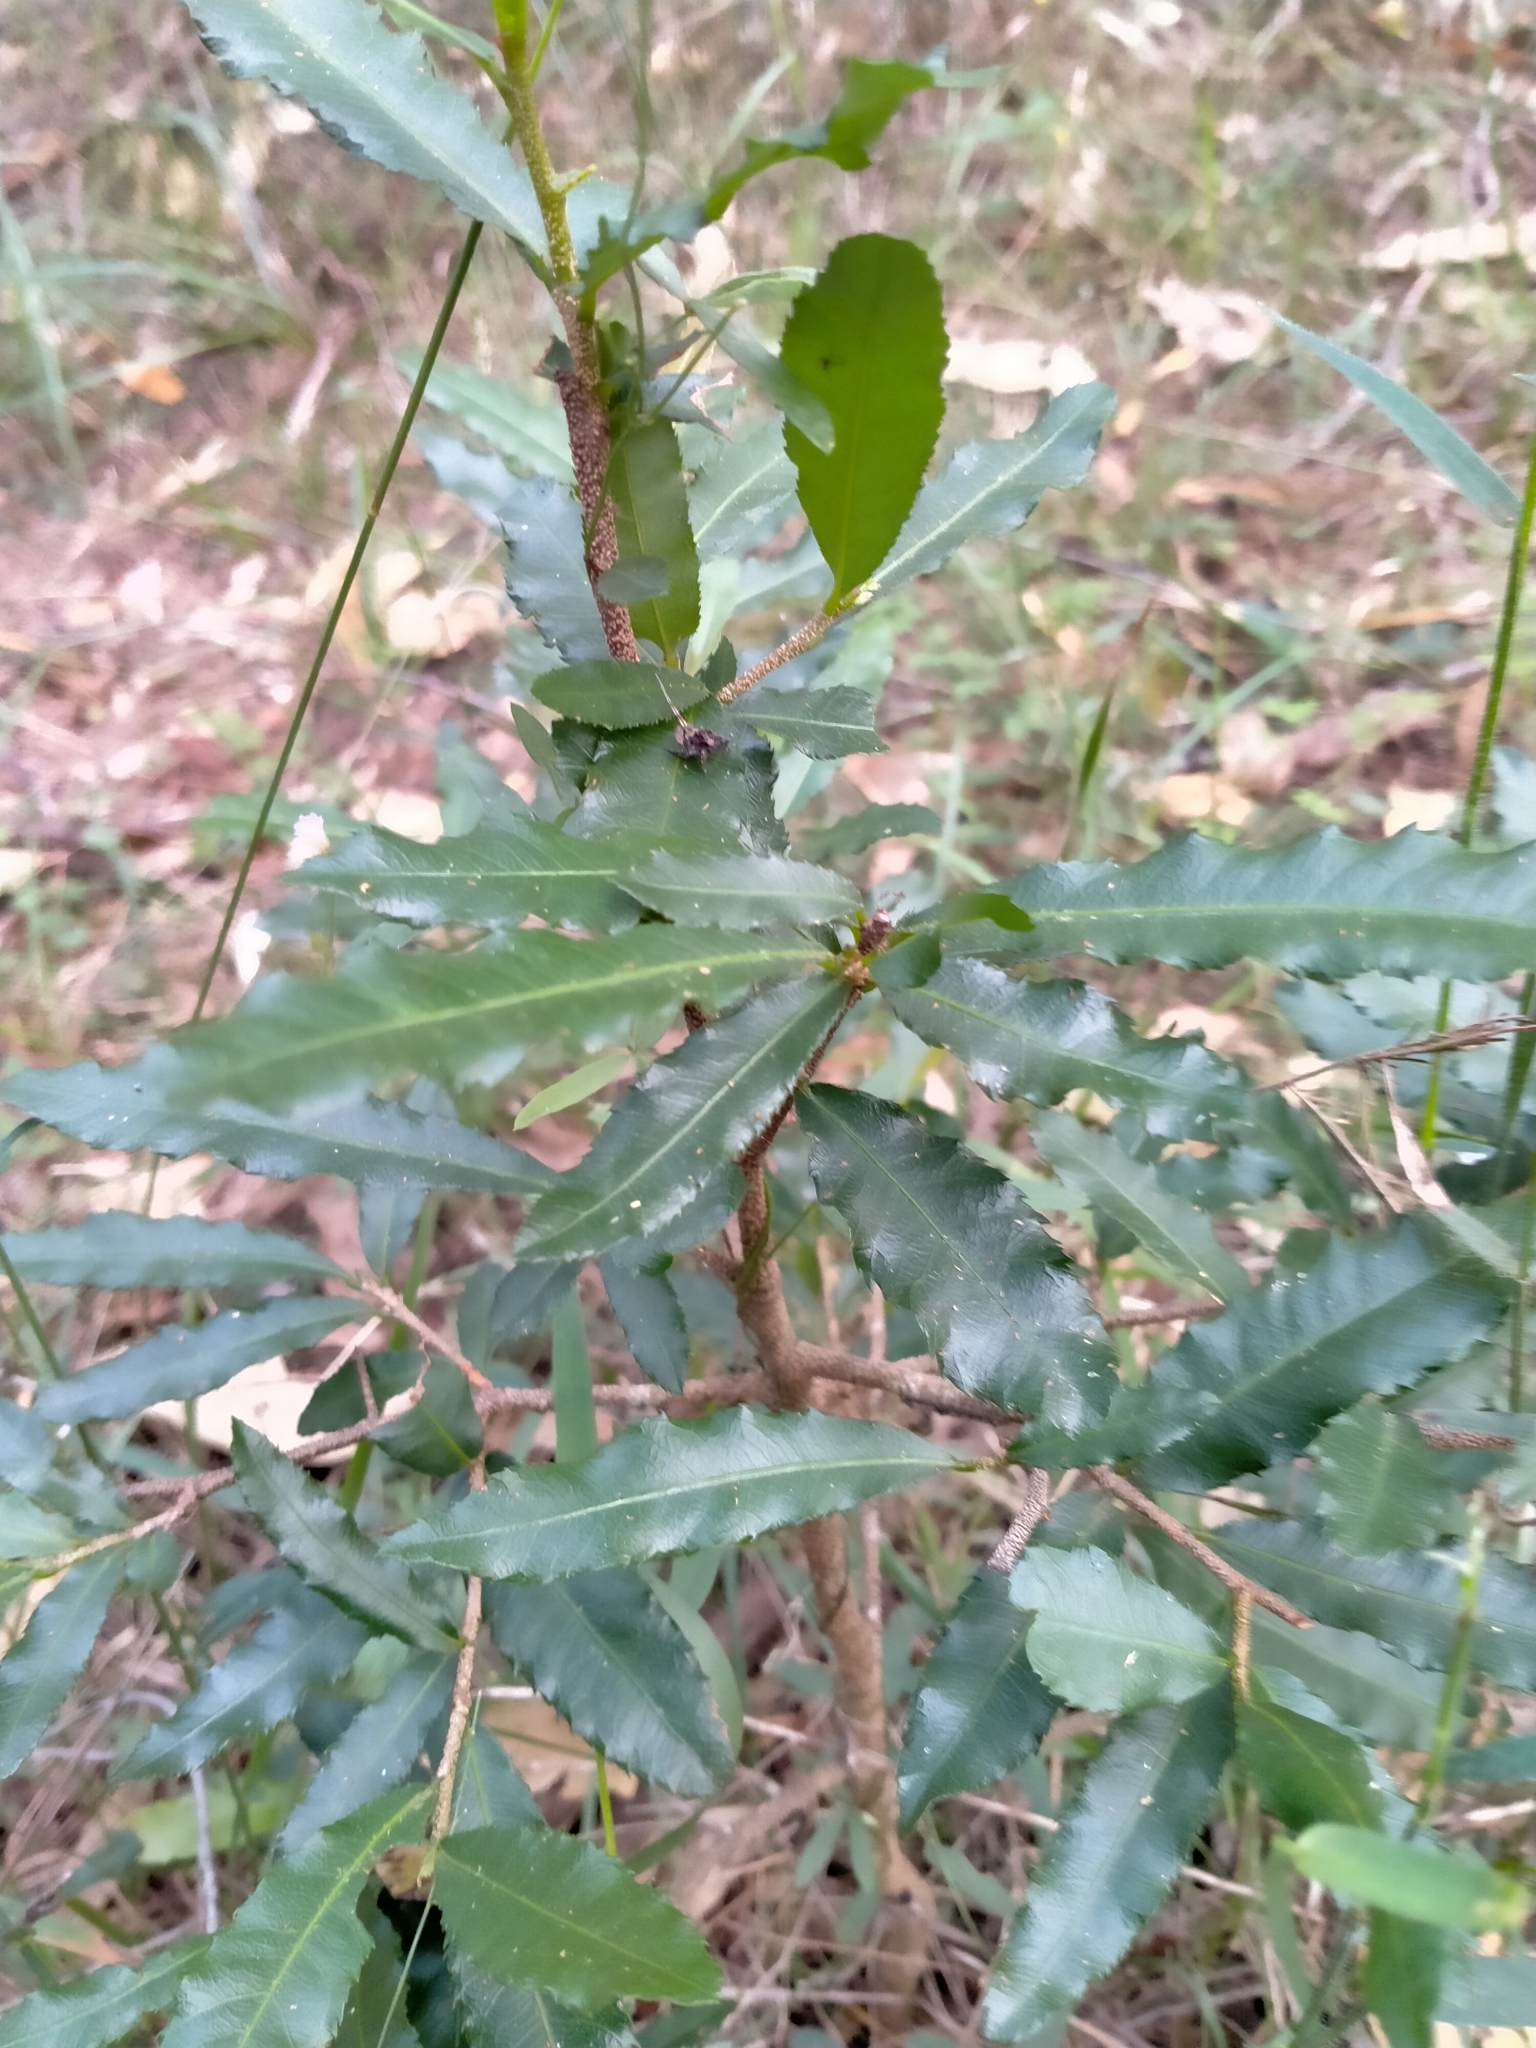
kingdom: Plantae
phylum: Tracheophyta
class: Magnoliopsida
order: Malpighiales
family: Ochnaceae
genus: Ochna
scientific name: Ochna serrulata
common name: Mickey mouse plant
